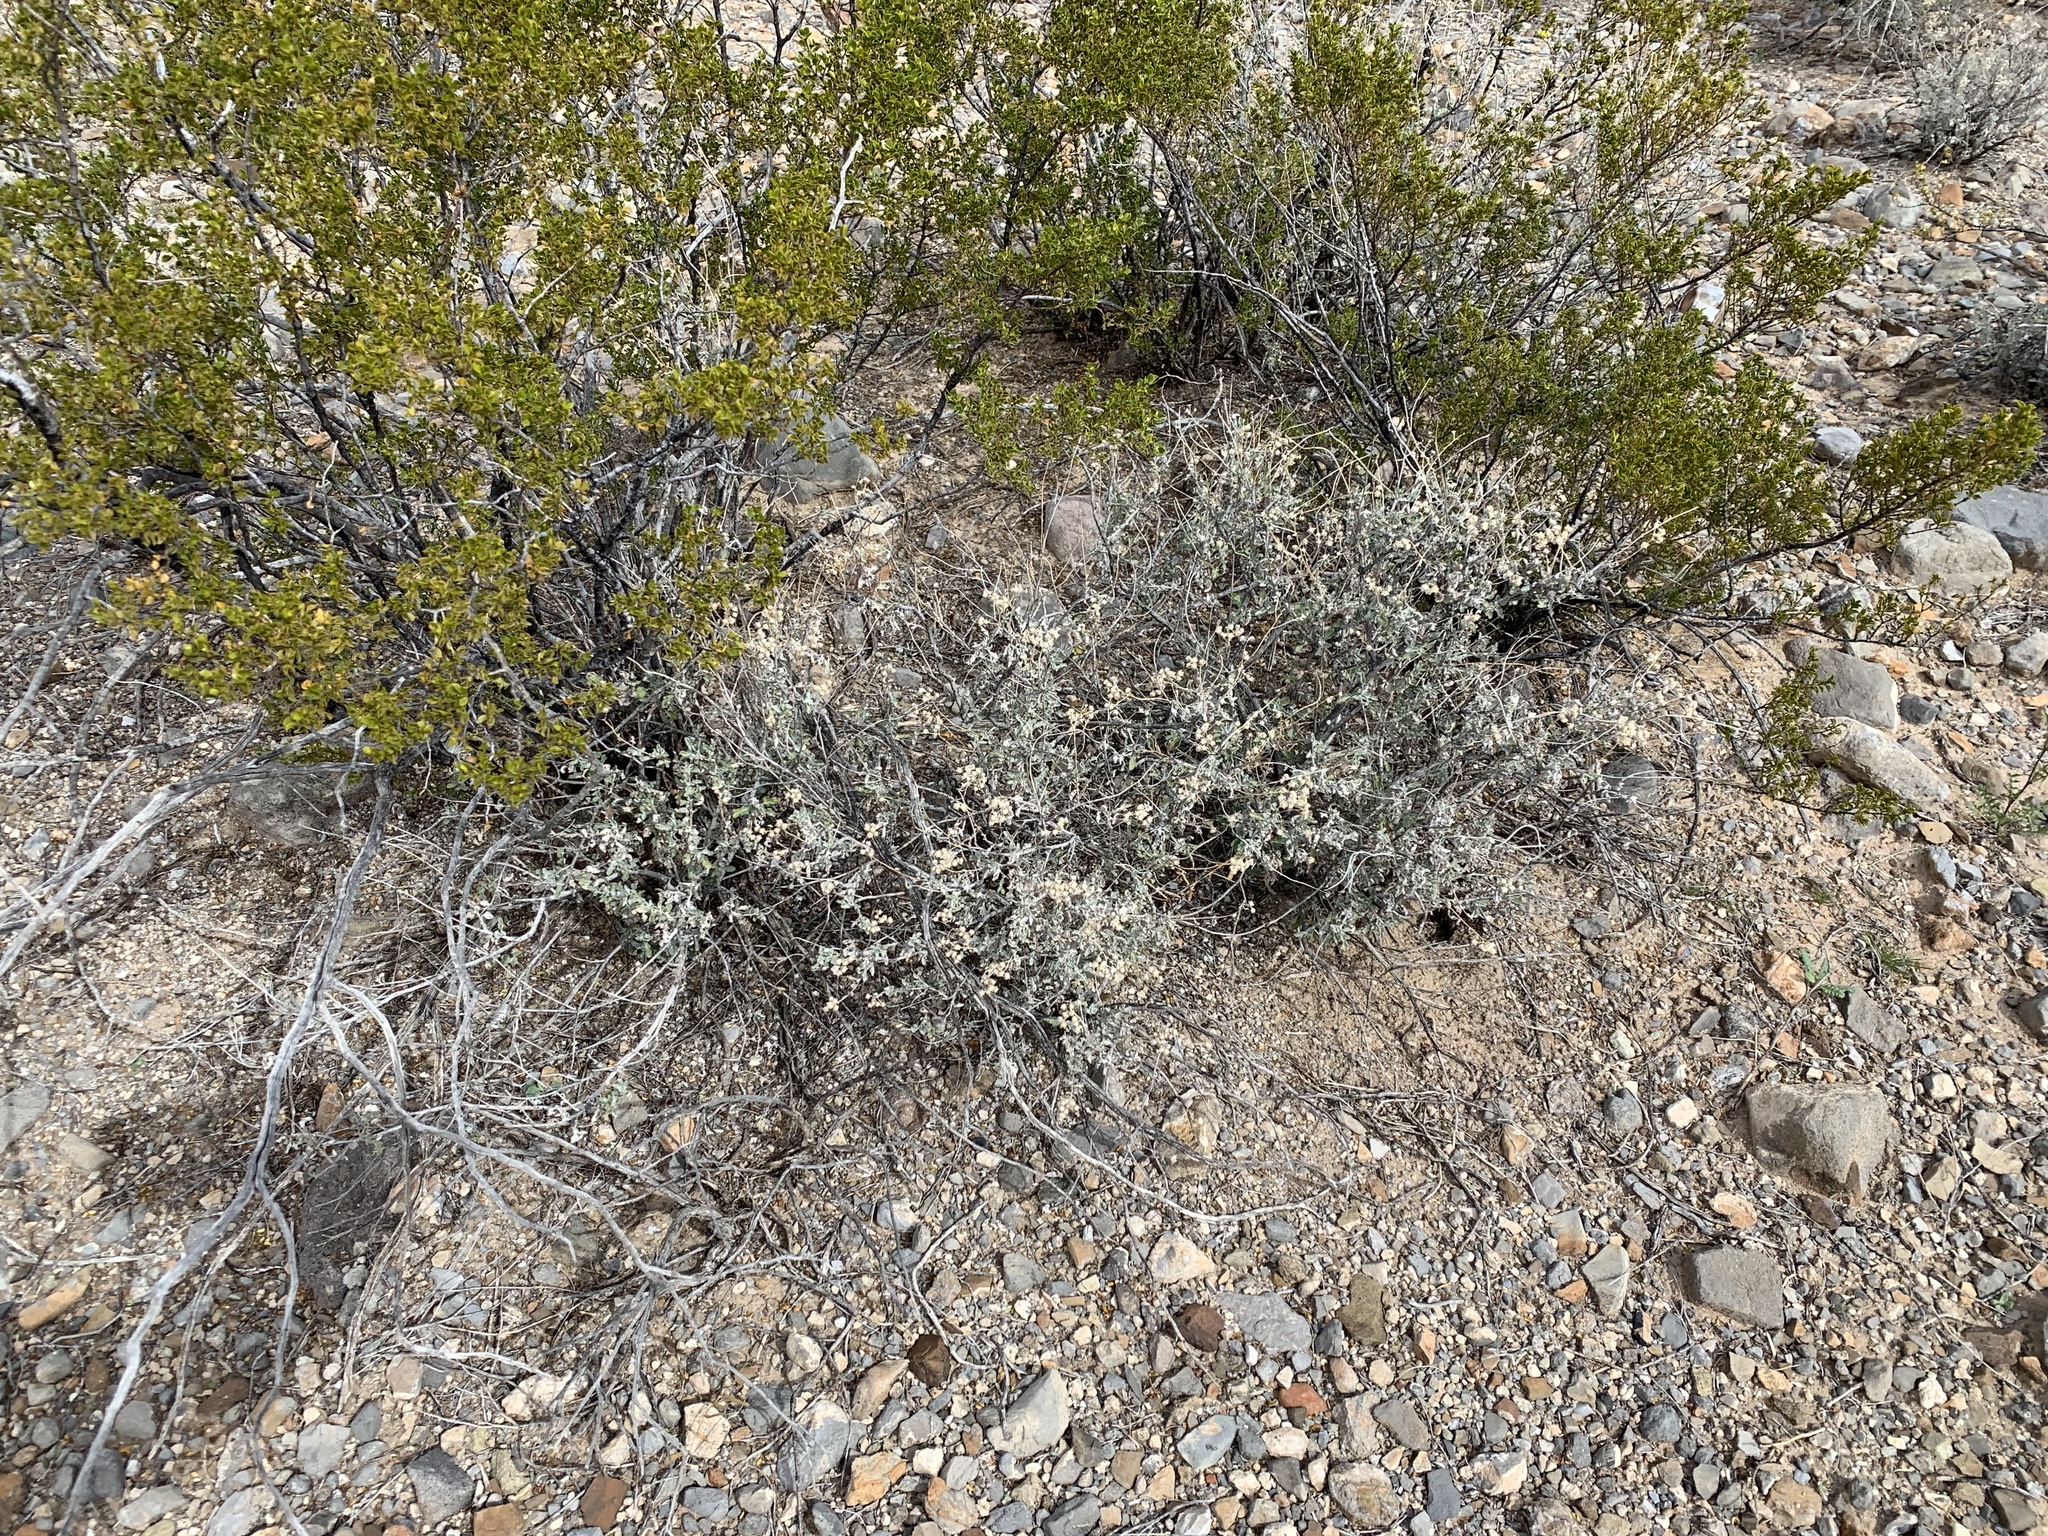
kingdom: Plantae
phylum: Tracheophyta
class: Magnoliopsida
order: Asterales
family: Asteraceae
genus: Parthenium
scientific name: Parthenium incanum
